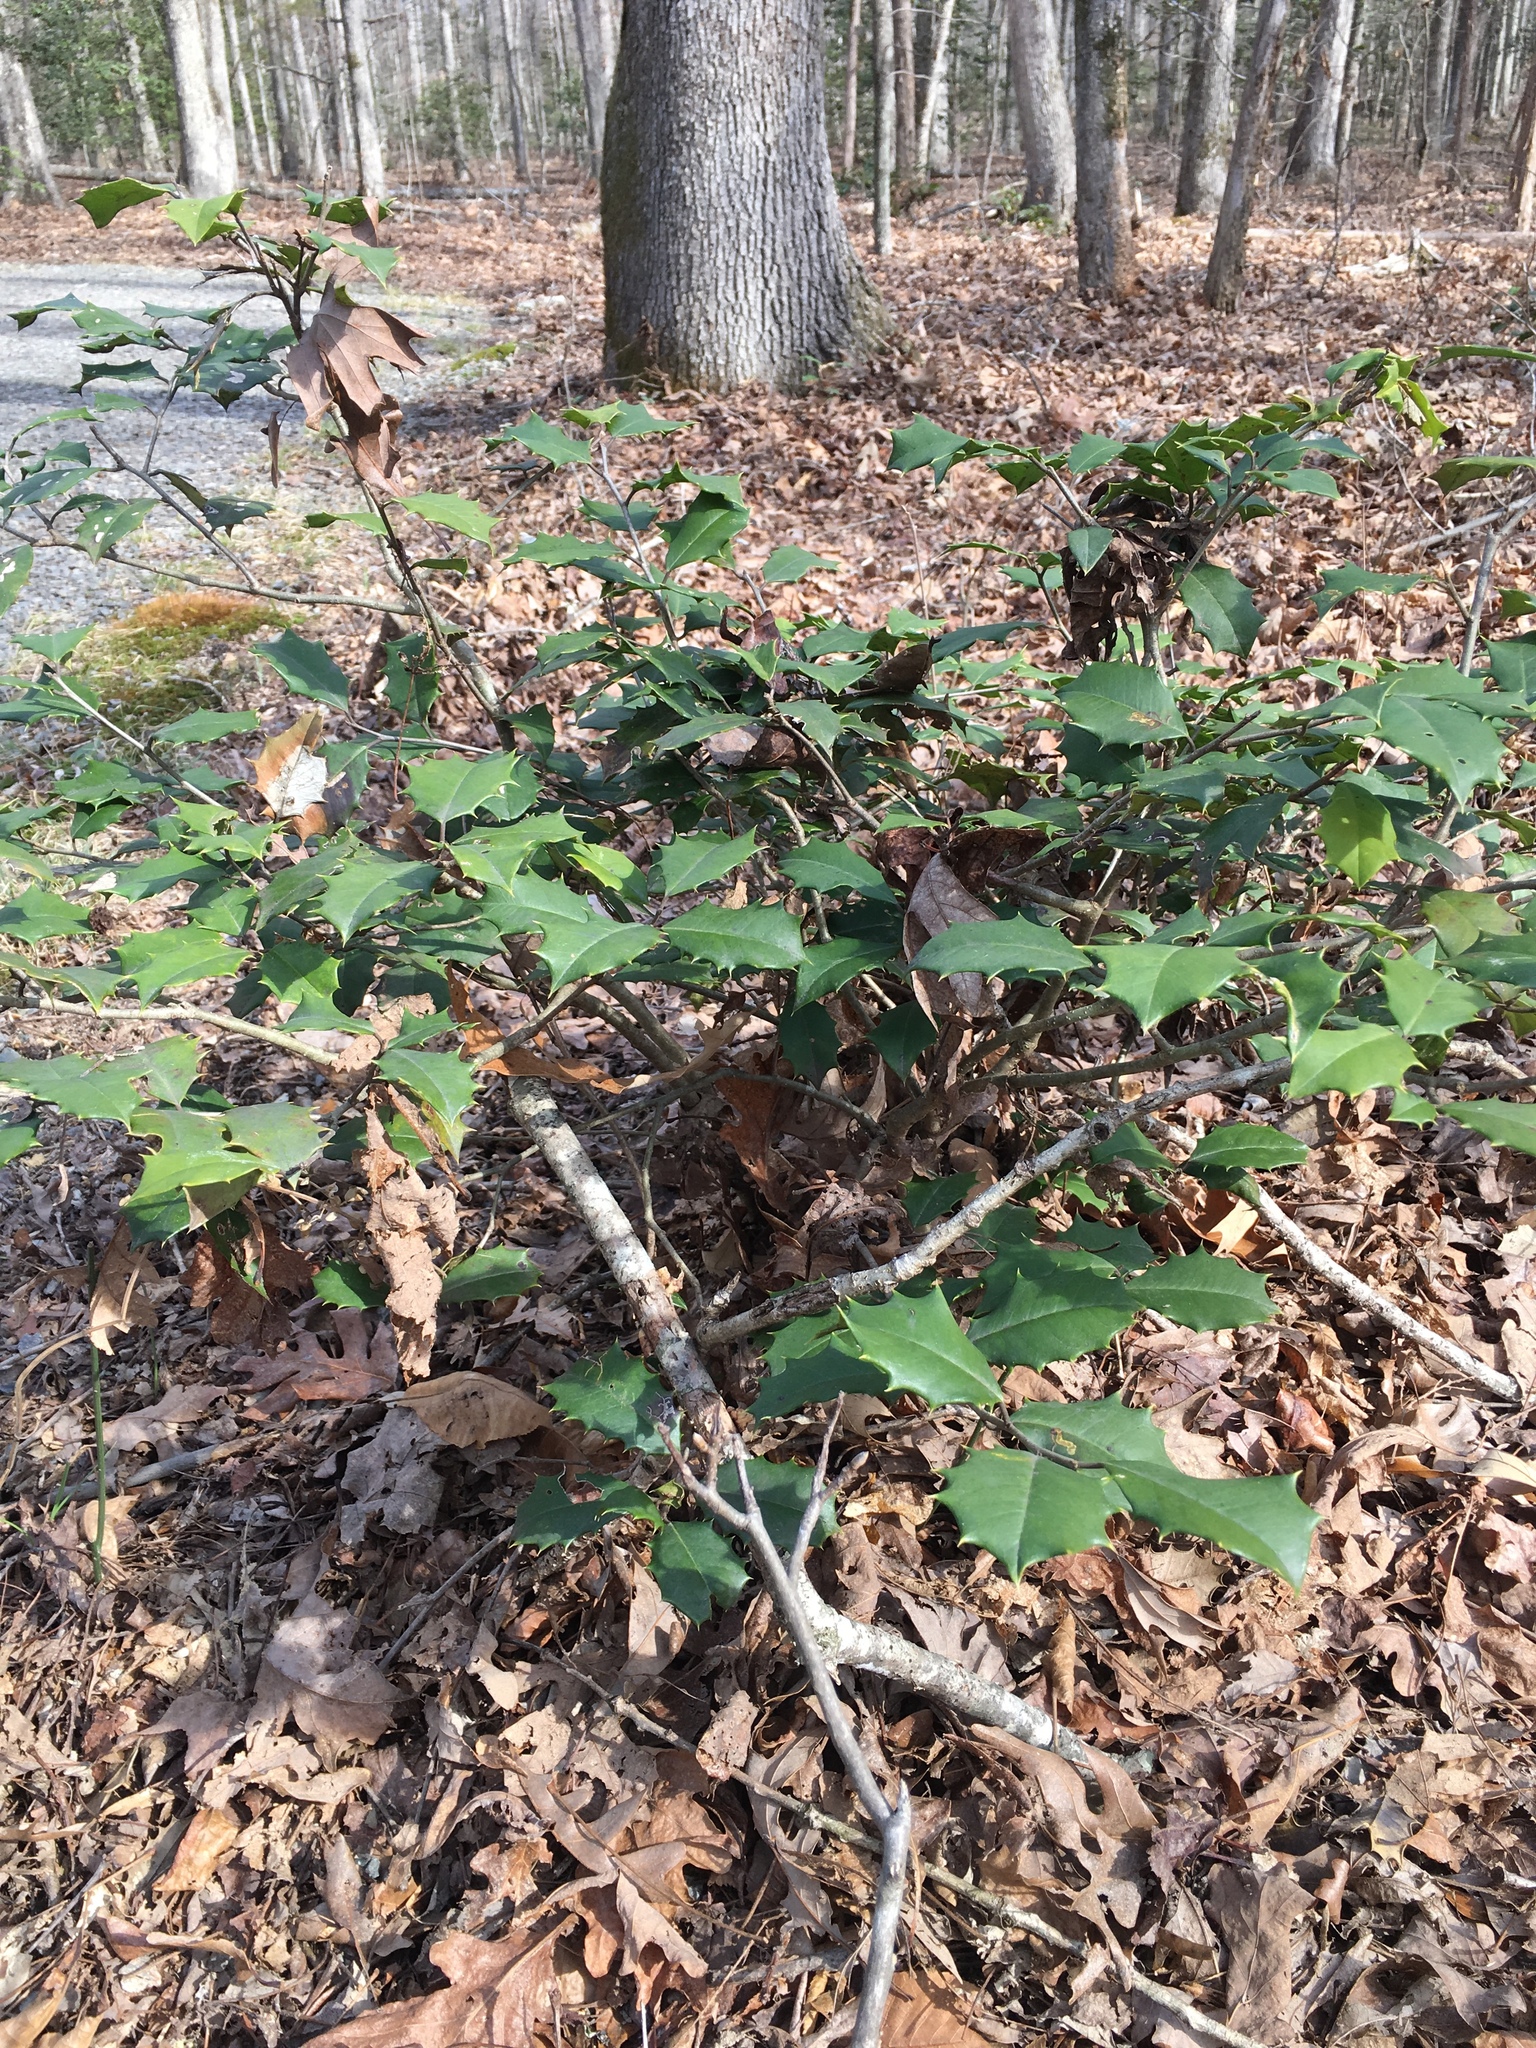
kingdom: Plantae
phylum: Tracheophyta
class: Magnoliopsida
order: Aquifoliales
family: Aquifoliaceae
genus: Ilex
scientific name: Ilex opaca
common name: American holly
